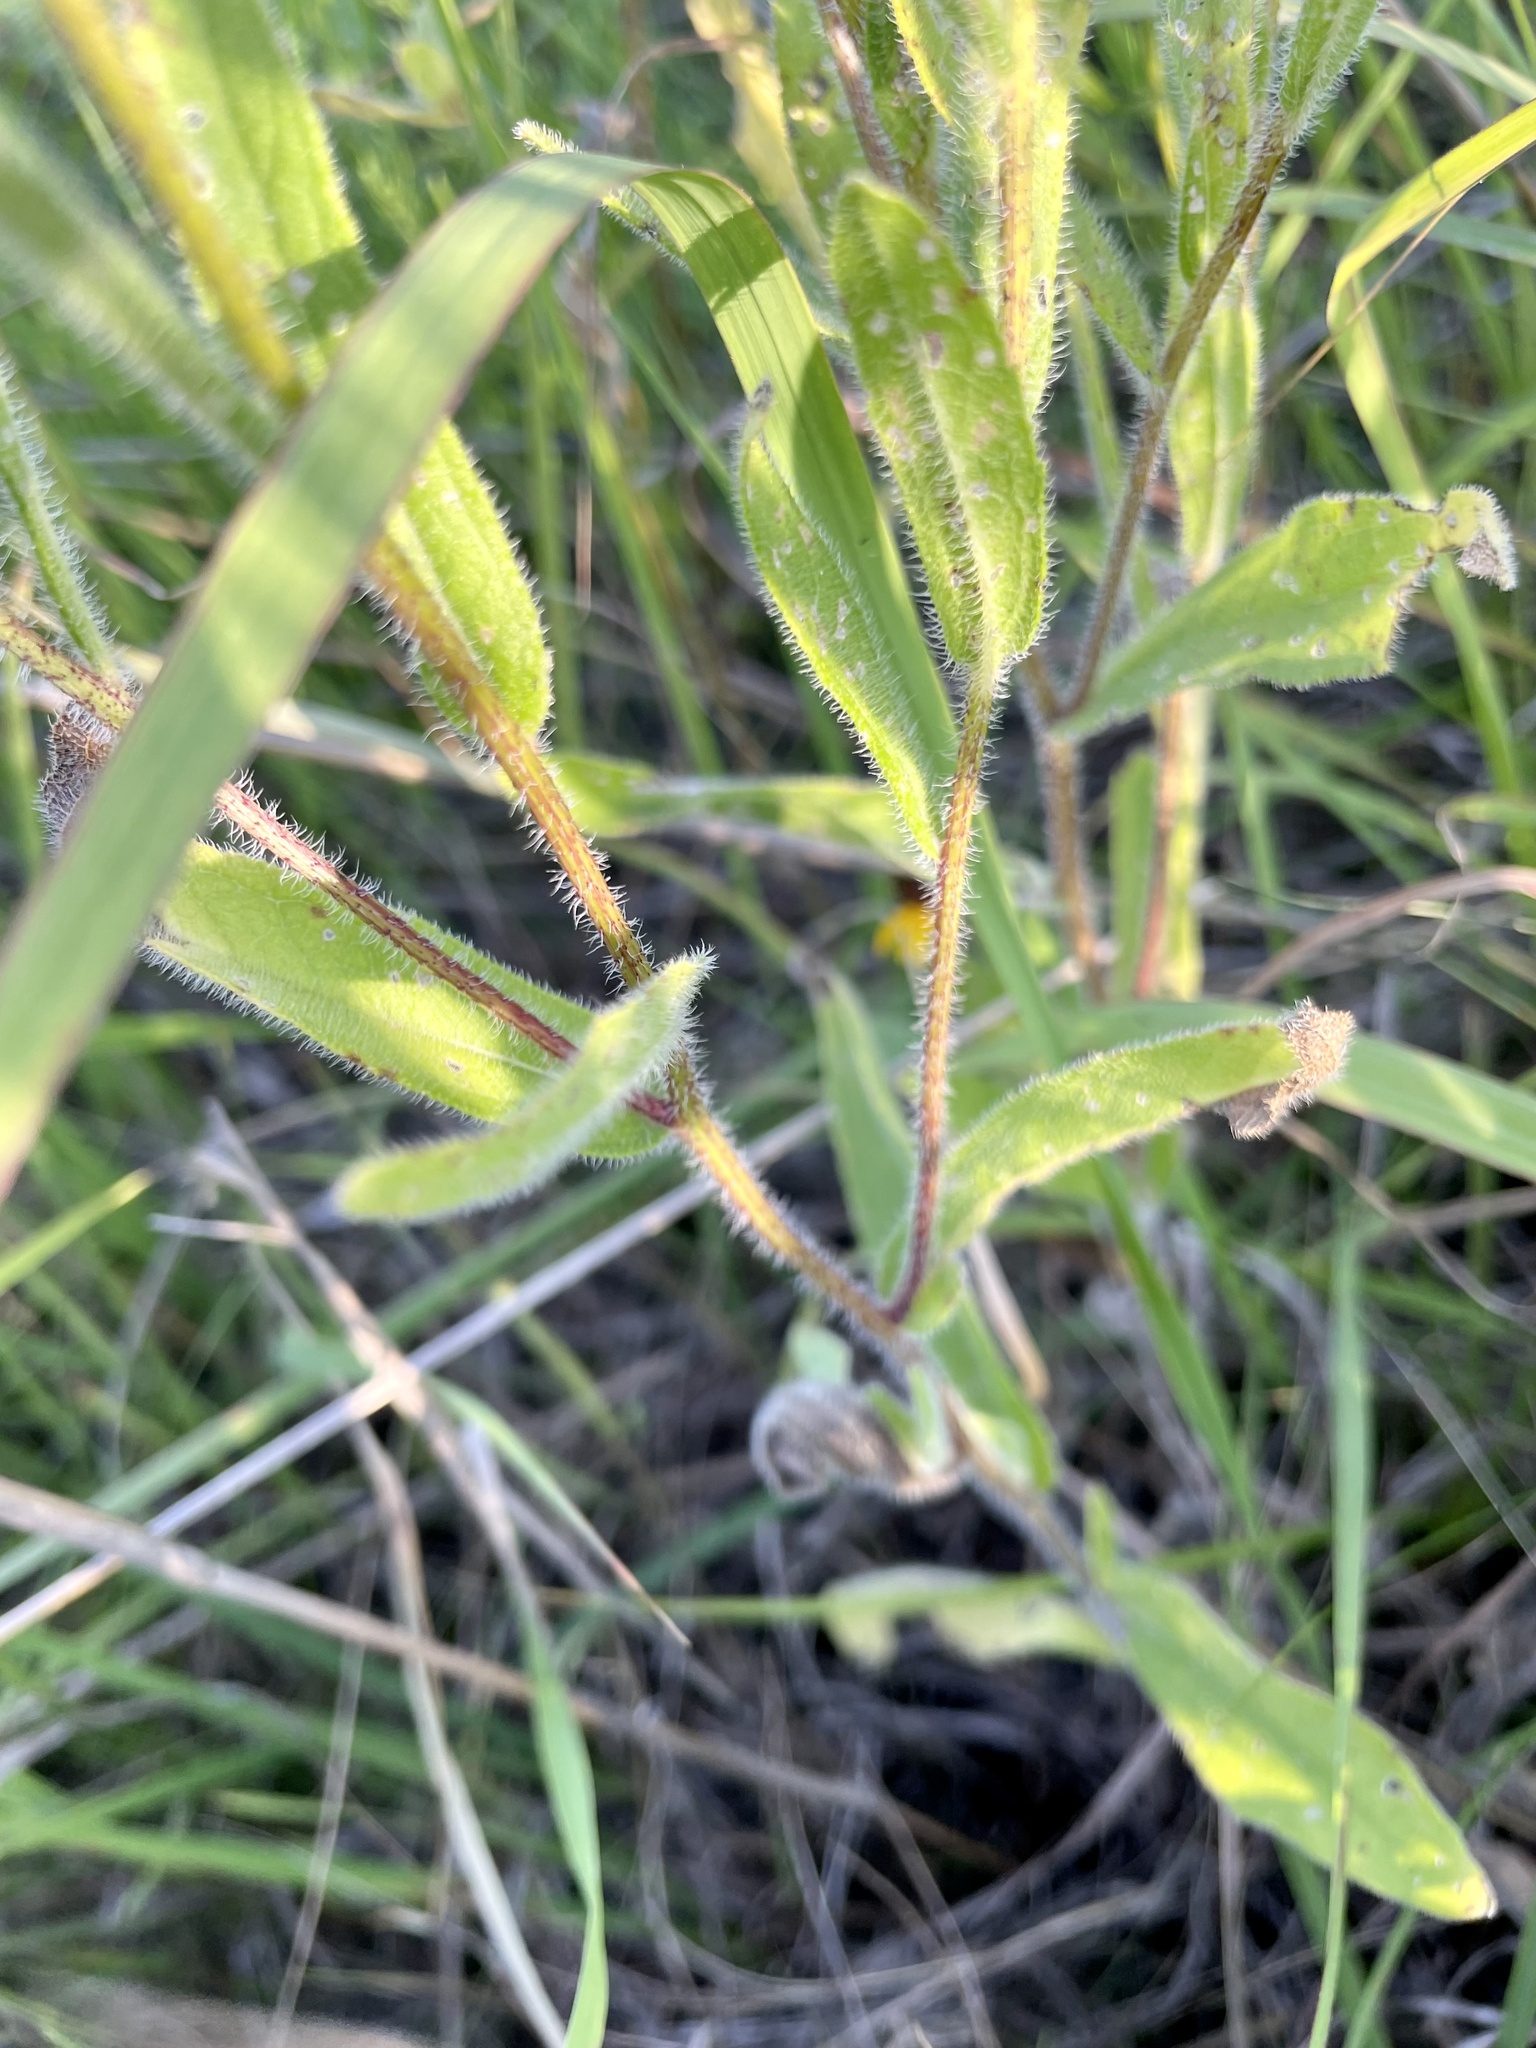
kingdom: Plantae
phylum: Tracheophyta
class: Magnoliopsida
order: Asterales
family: Asteraceae
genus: Rudbeckia
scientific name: Rudbeckia hirta
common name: Black-eyed-susan
